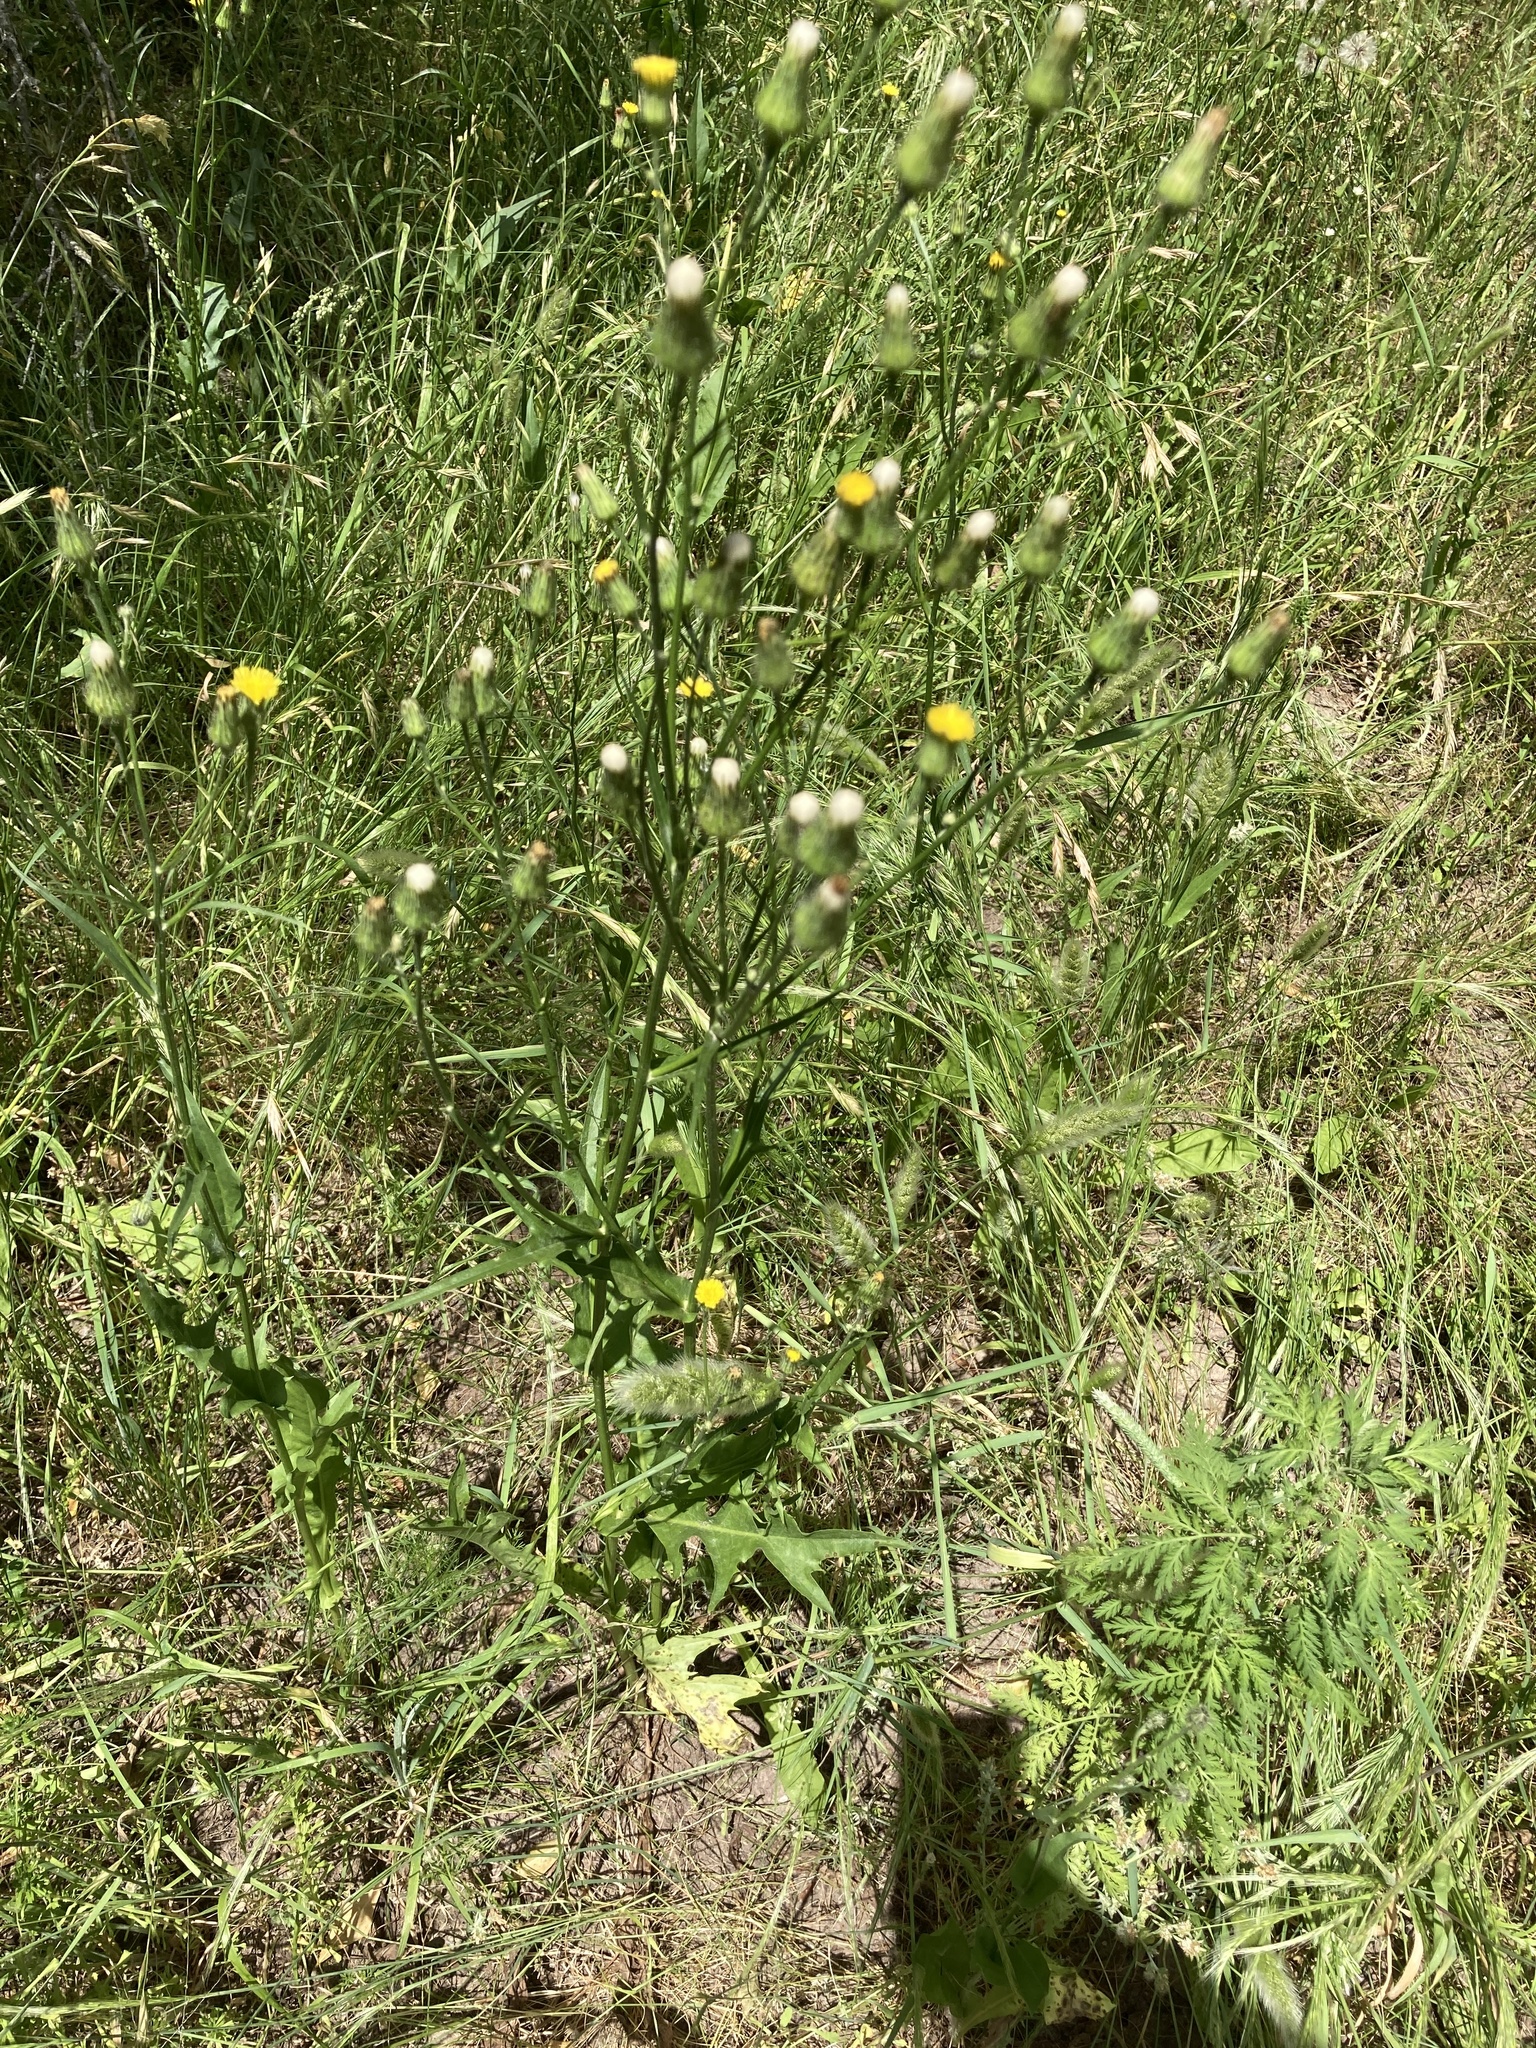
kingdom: Plantae
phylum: Tracheophyta
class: Magnoliopsida
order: Asterales
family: Asteraceae
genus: Hypochaeris
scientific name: Hypochaeris chillensis
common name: Brazilian cat's ear
